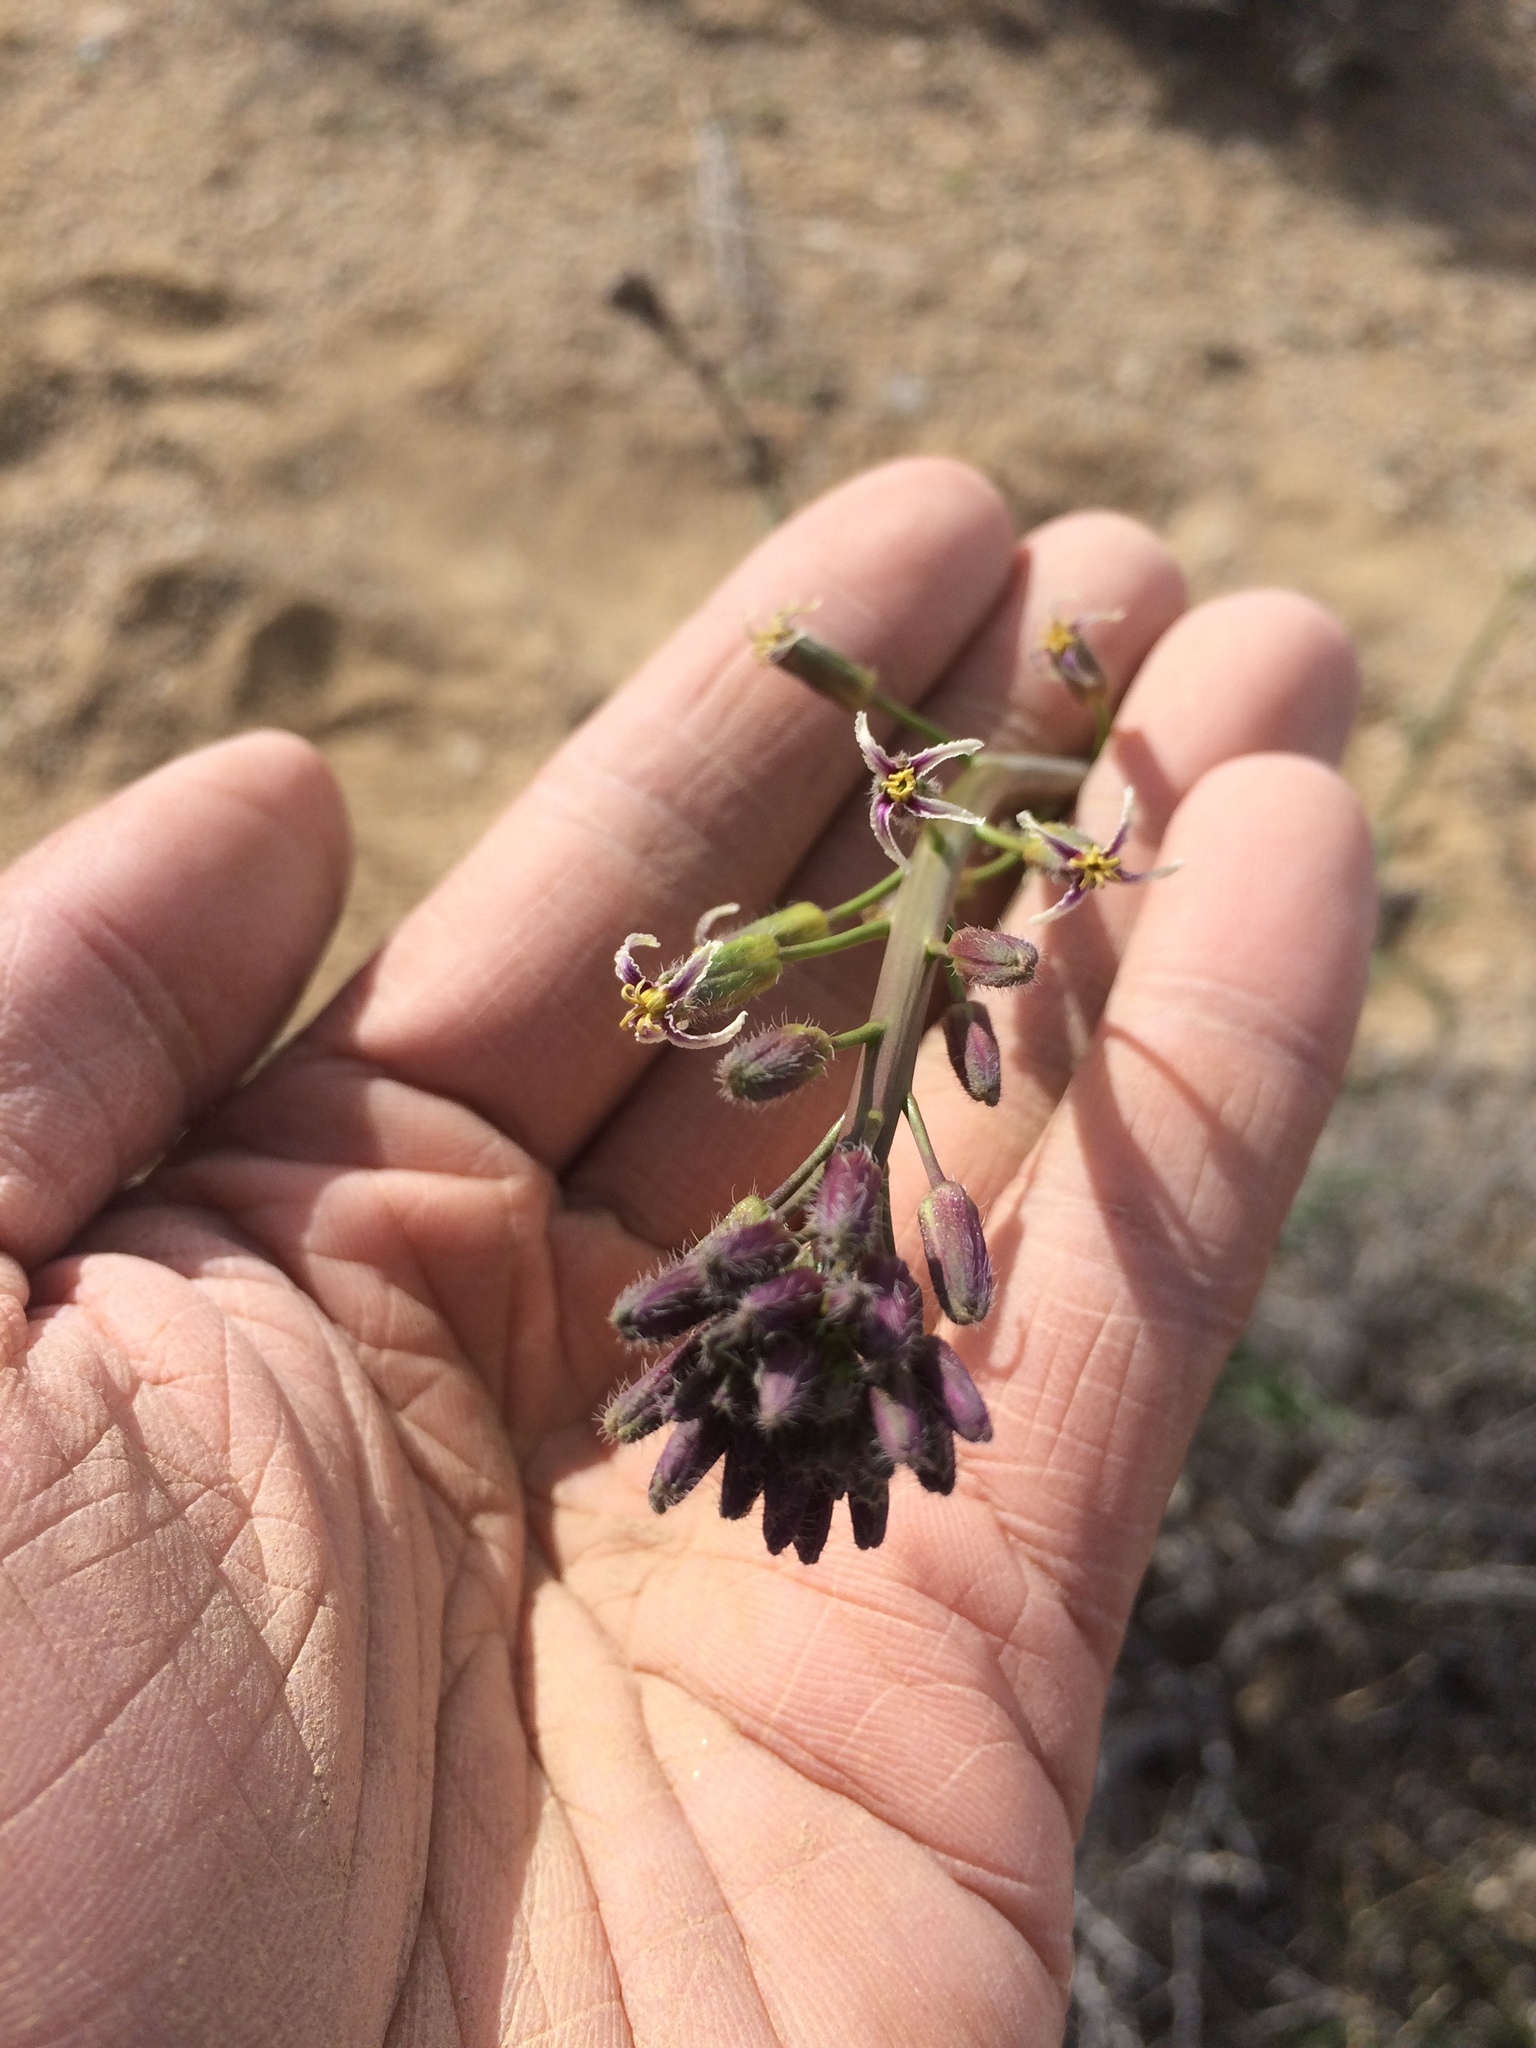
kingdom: Plantae
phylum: Tracheophyta
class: Magnoliopsida
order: Brassicales
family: Brassicaceae
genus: Streptanthus
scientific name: Streptanthus pilosus
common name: Chocolate drops
